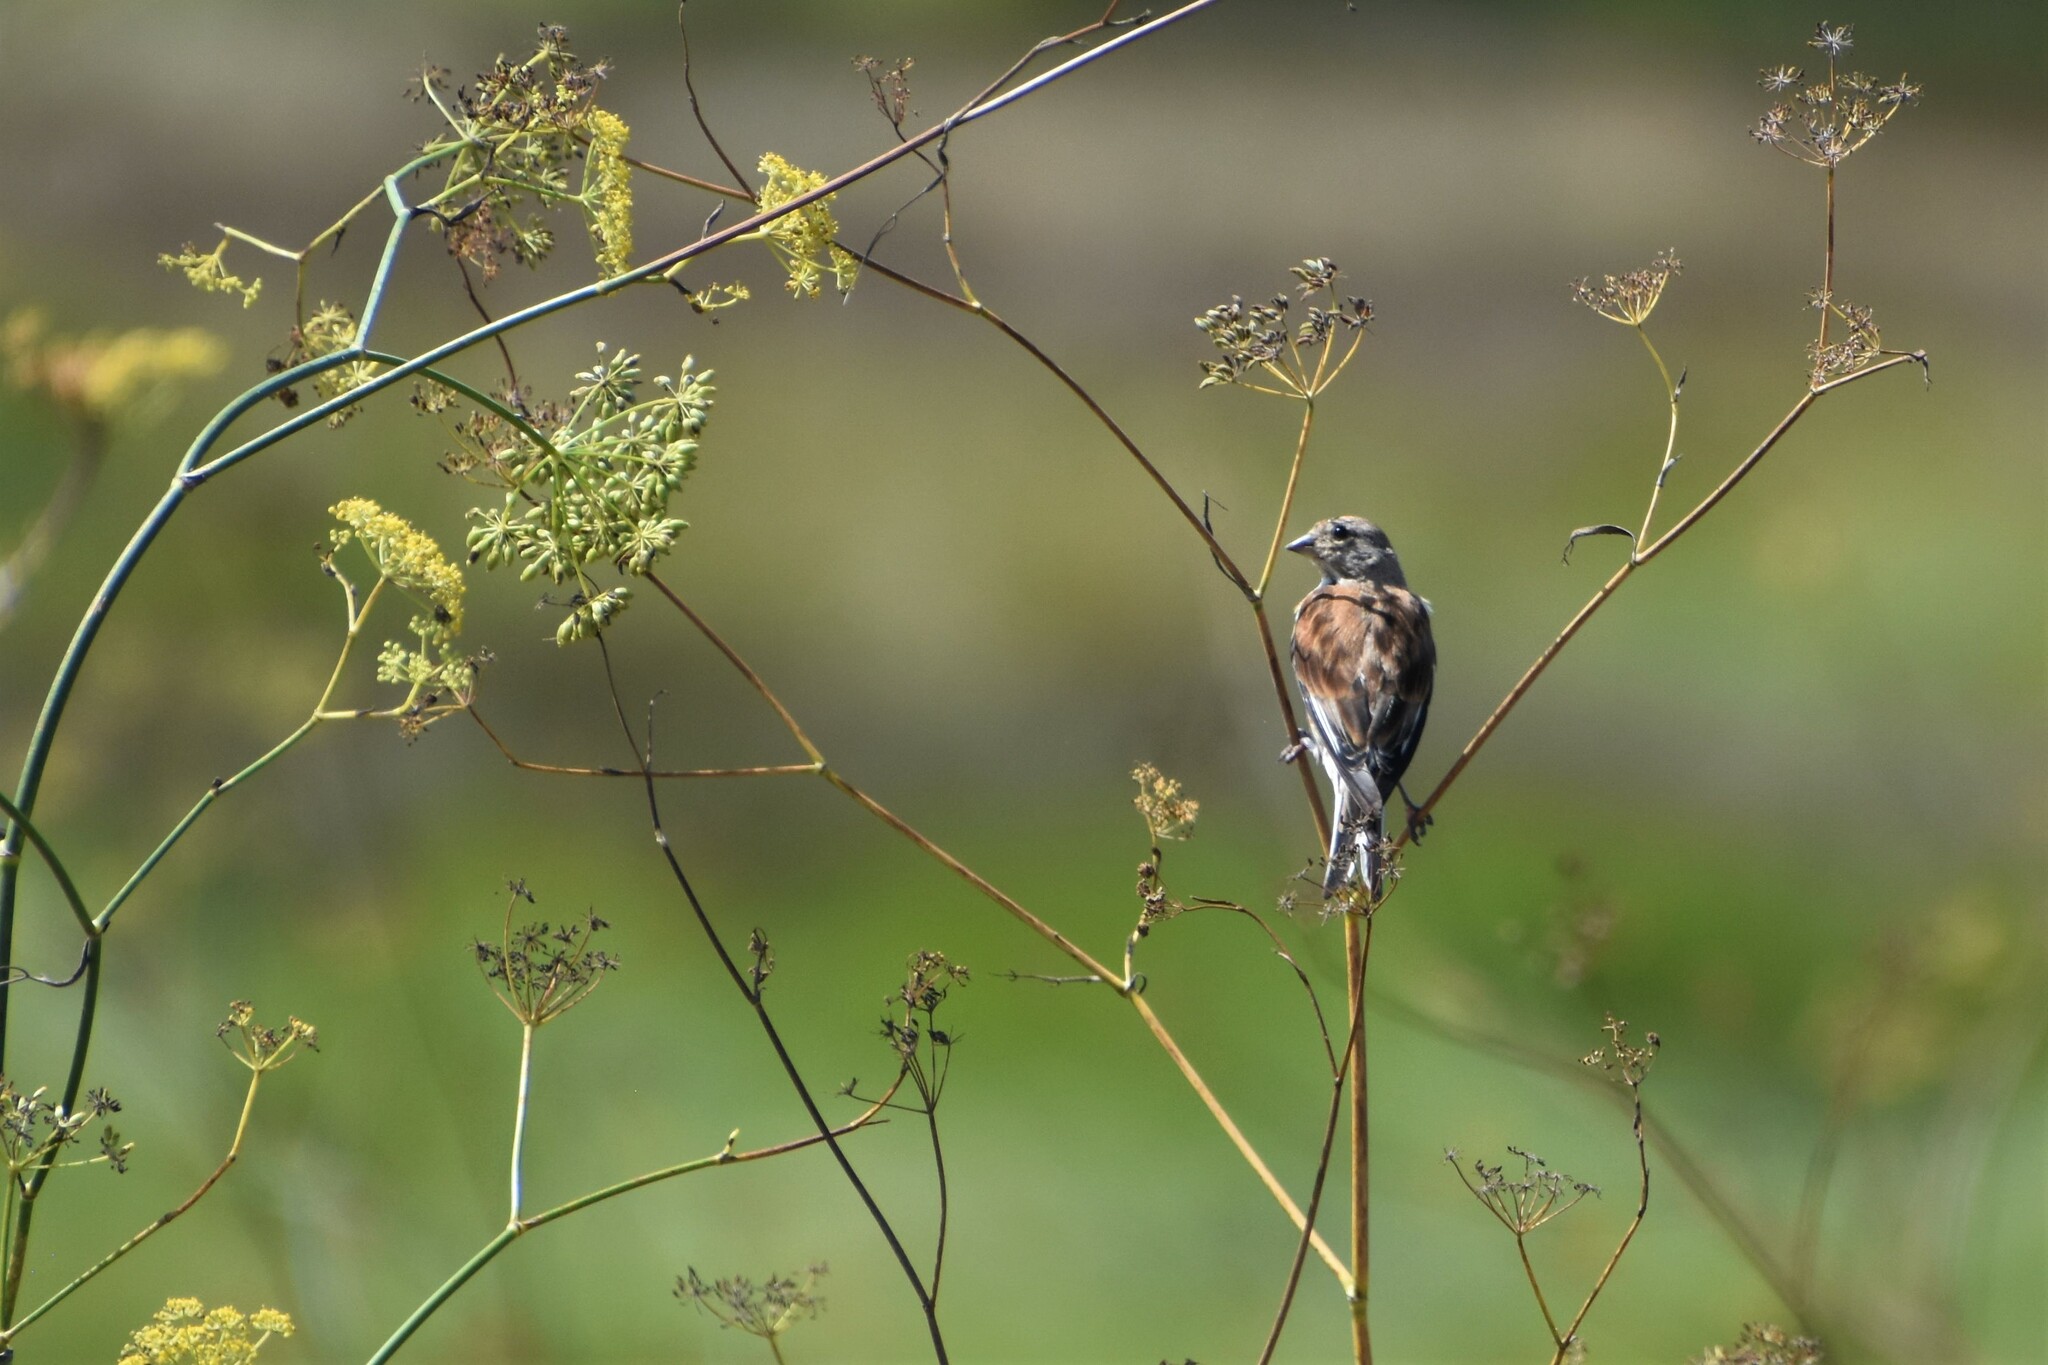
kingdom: Animalia
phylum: Chordata
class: Aves
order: Passeriformes
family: Fringillidae
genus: Linaria
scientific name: Linaria cannabina
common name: Common linnet
